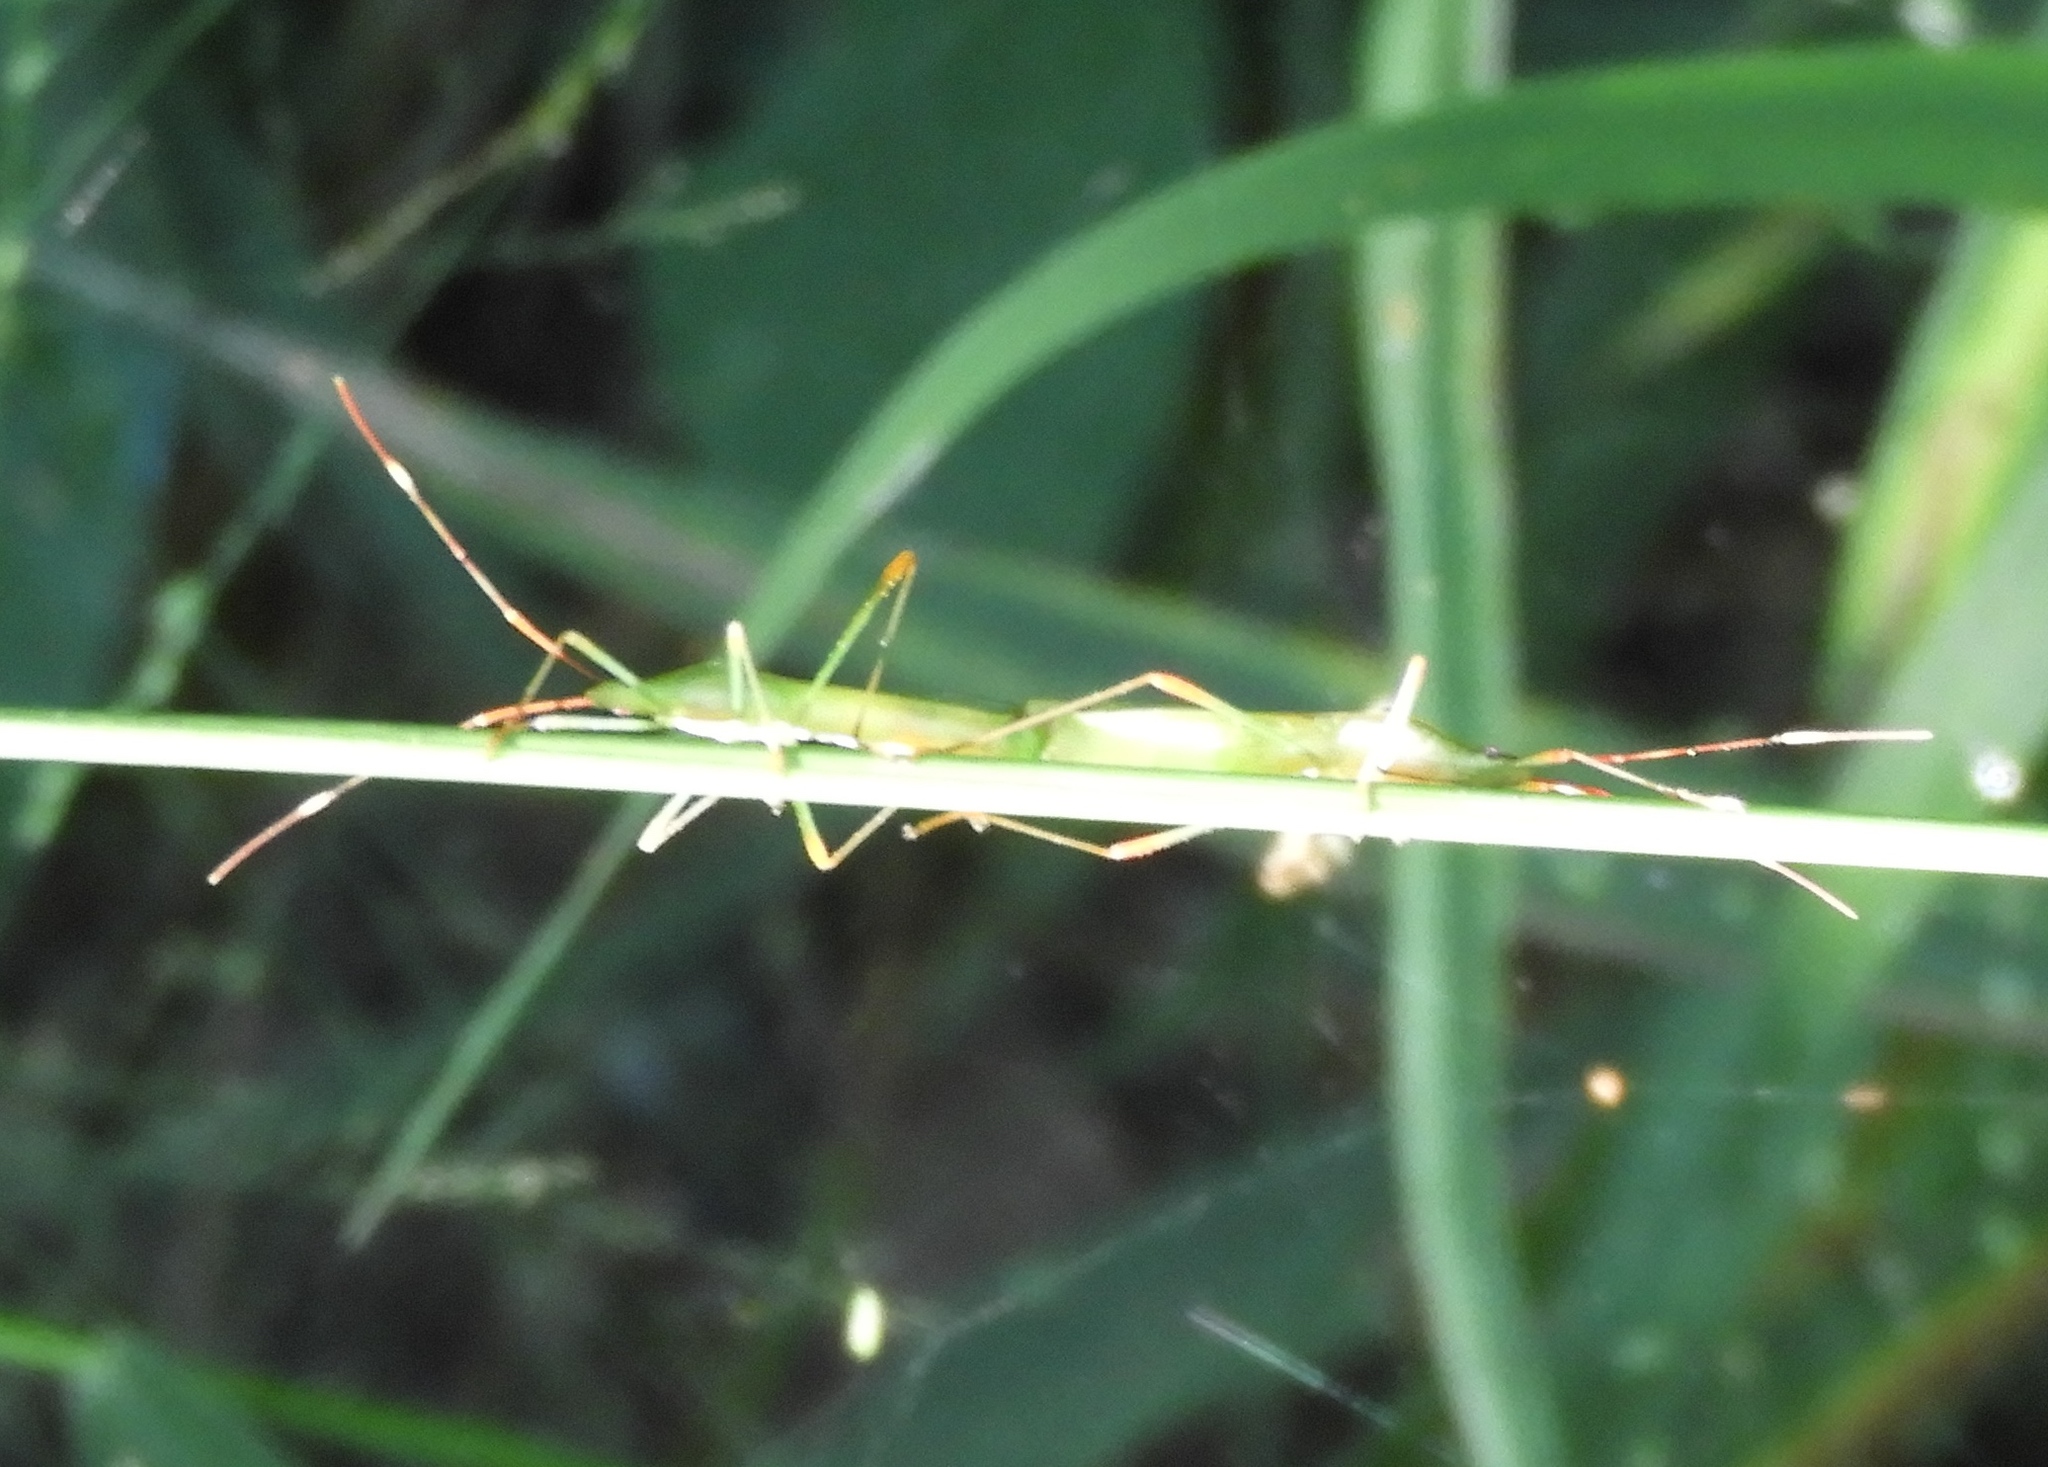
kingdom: Animalia
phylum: Arthropoda
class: Insecta
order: Hemiptera
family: Alydidae
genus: Stenocoris
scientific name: Stenocoris
